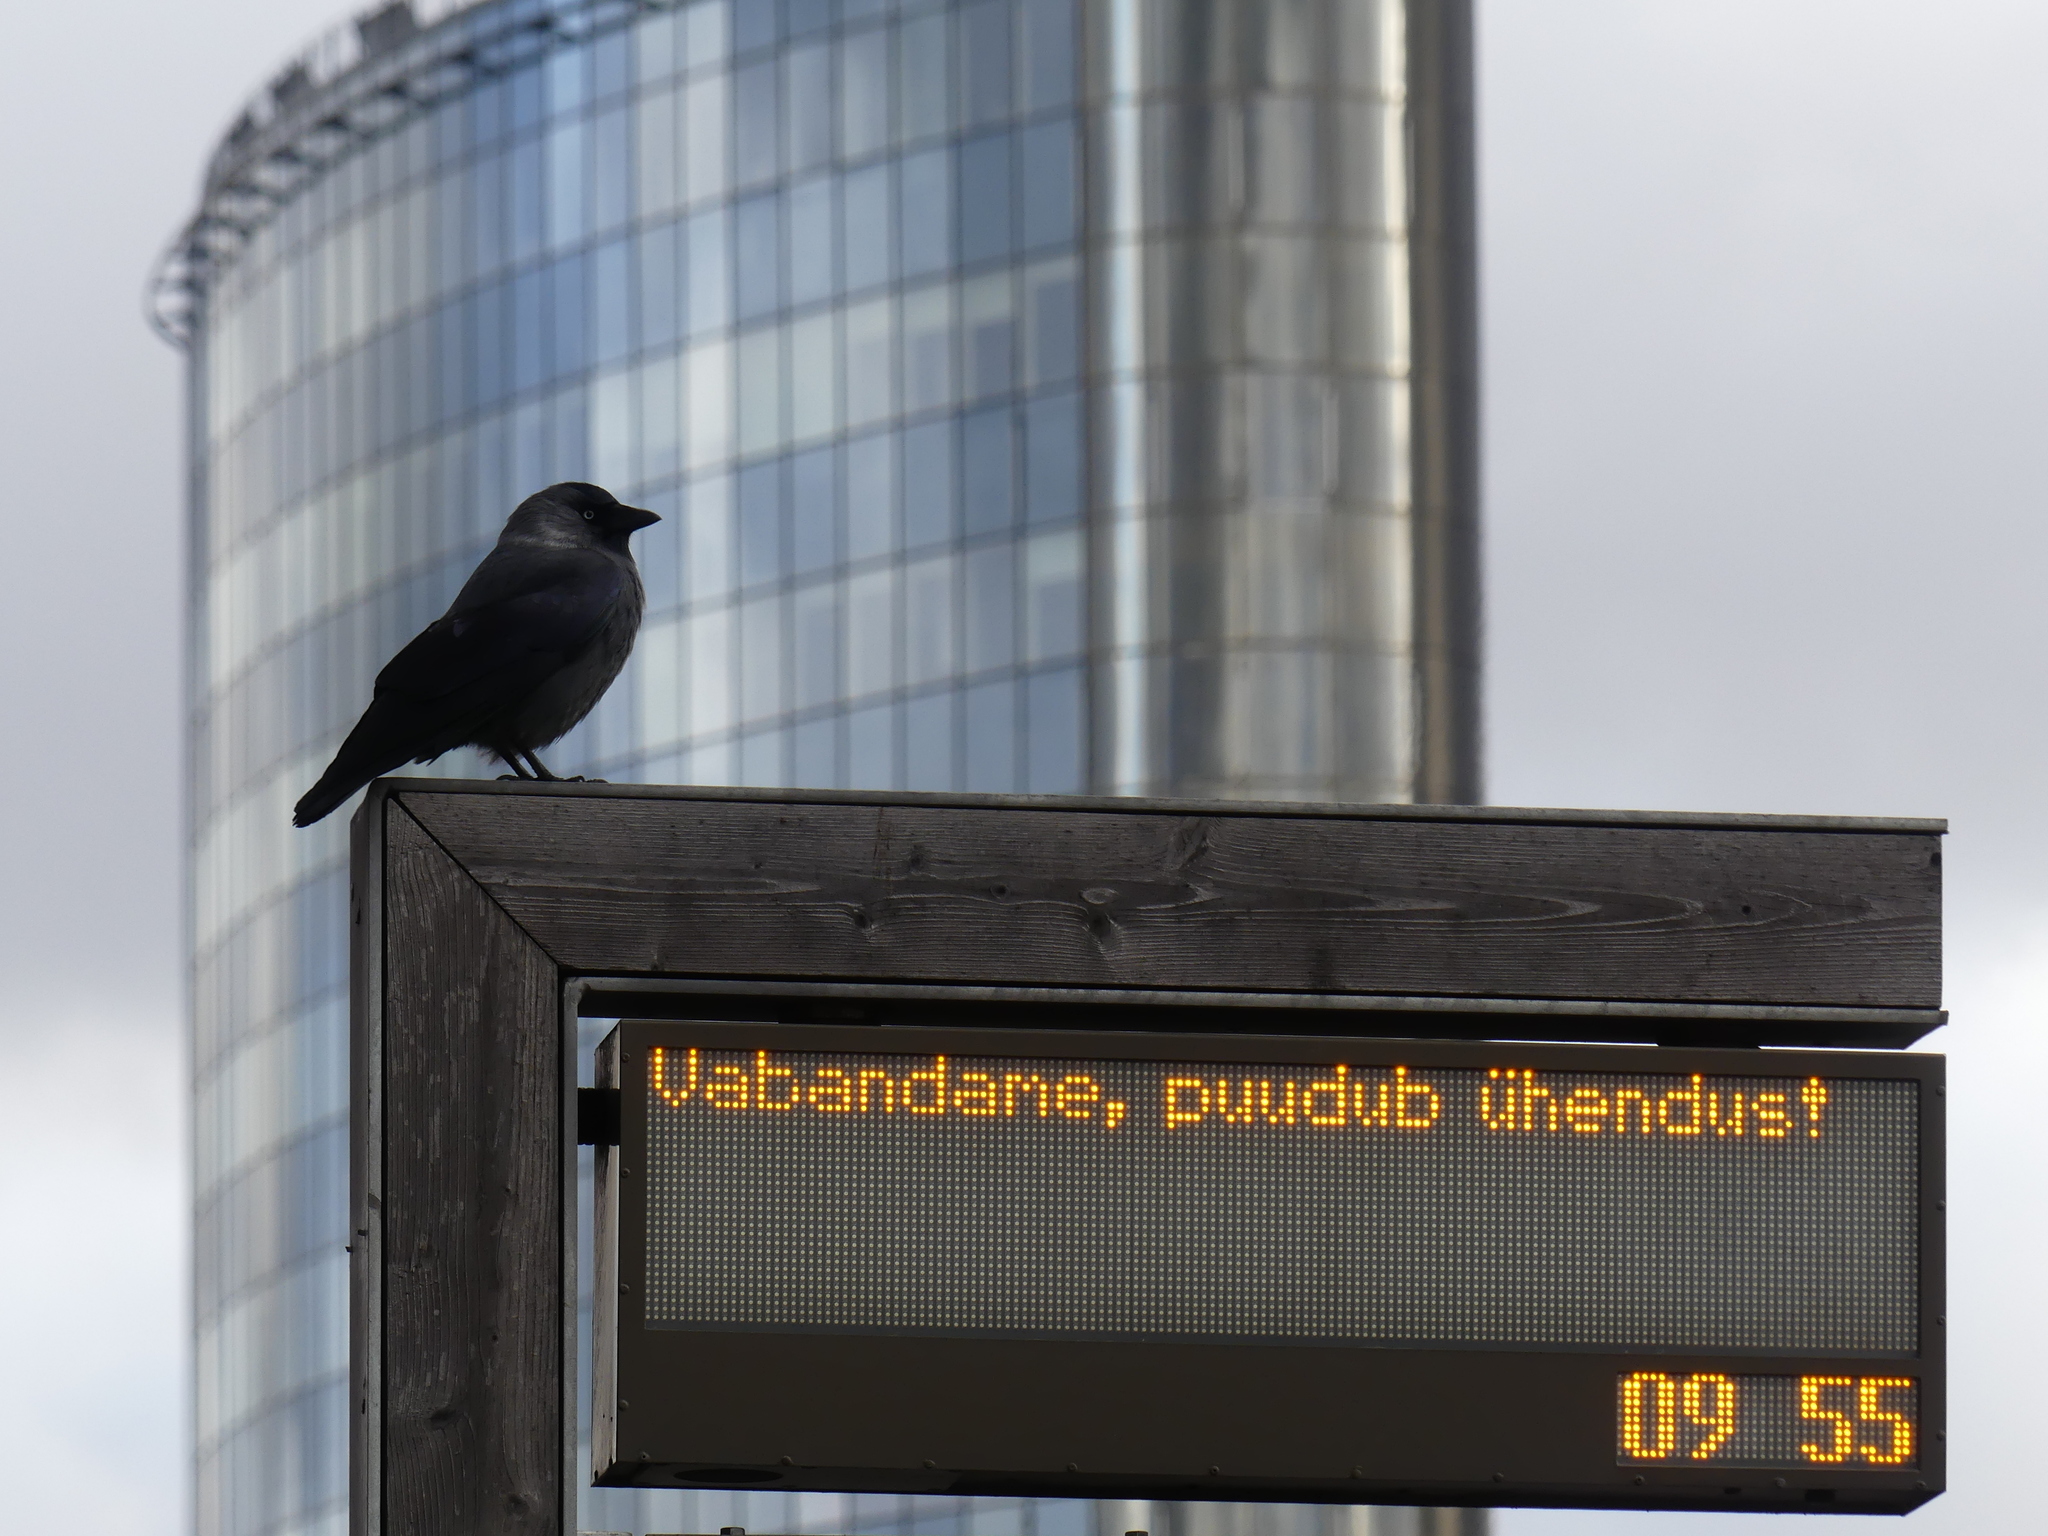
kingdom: Animalia
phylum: Chordata
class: Aves
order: Passeriformes
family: Corvidae
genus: Coloeus
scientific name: Coloeus monedula
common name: Western jackdaw
